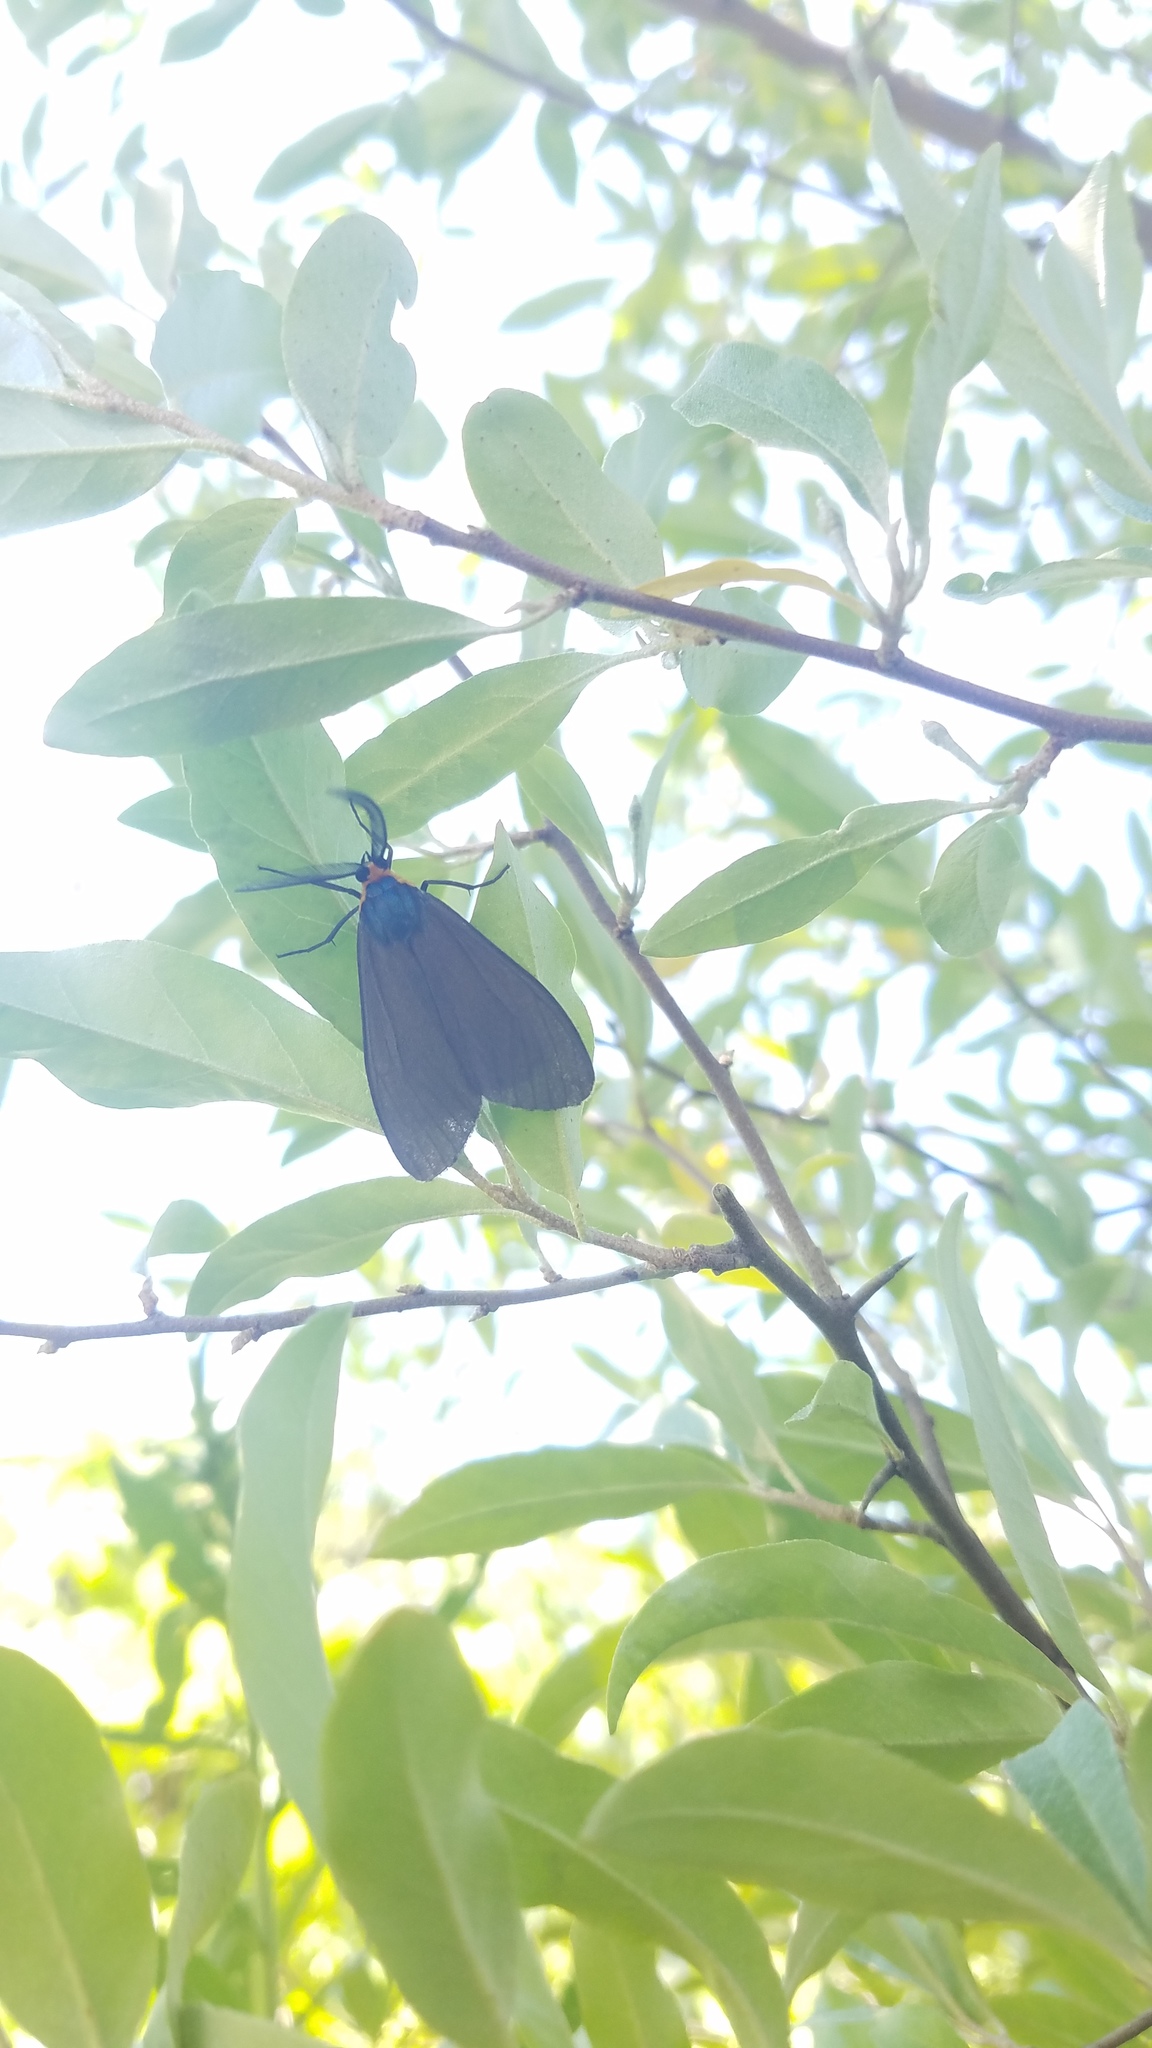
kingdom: Animalia
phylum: Arthropoda
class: Insecta
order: Lepidoptera
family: Erebidae
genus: Ctenucha
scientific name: Ctenucha virginica
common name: Virginia ctenucha moth
